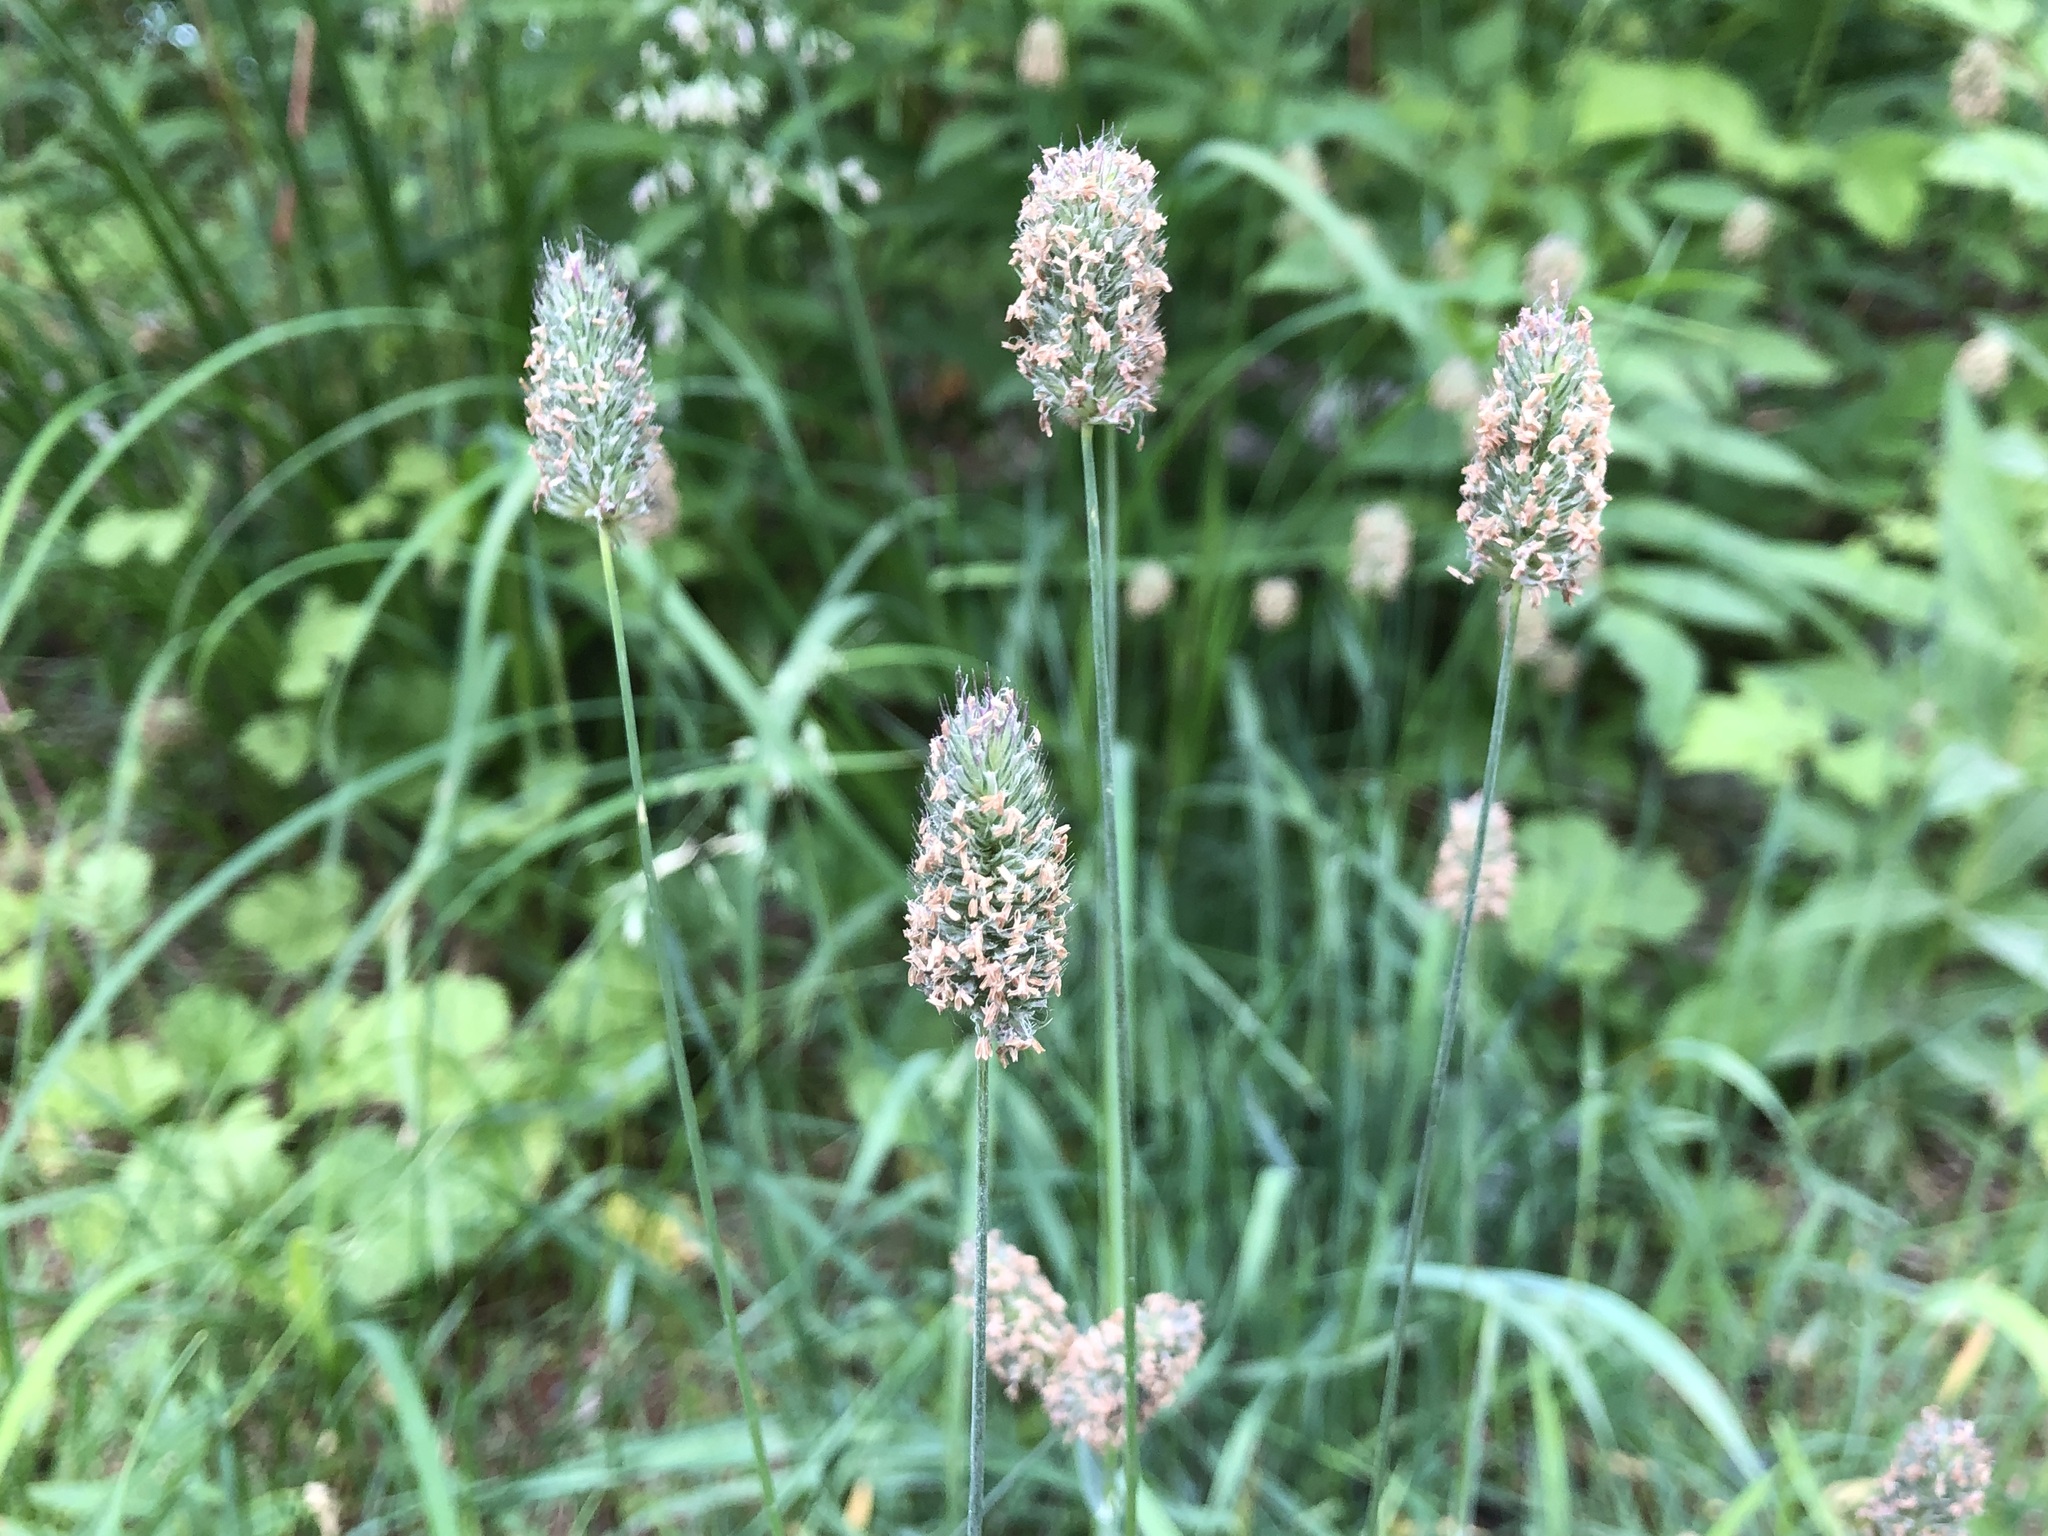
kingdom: Plantae
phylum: Tracheophyta
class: Liliopsida
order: Poales
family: Poaceae
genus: Phleum
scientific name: Phleum alpinum
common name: Alpine cat's-tail
